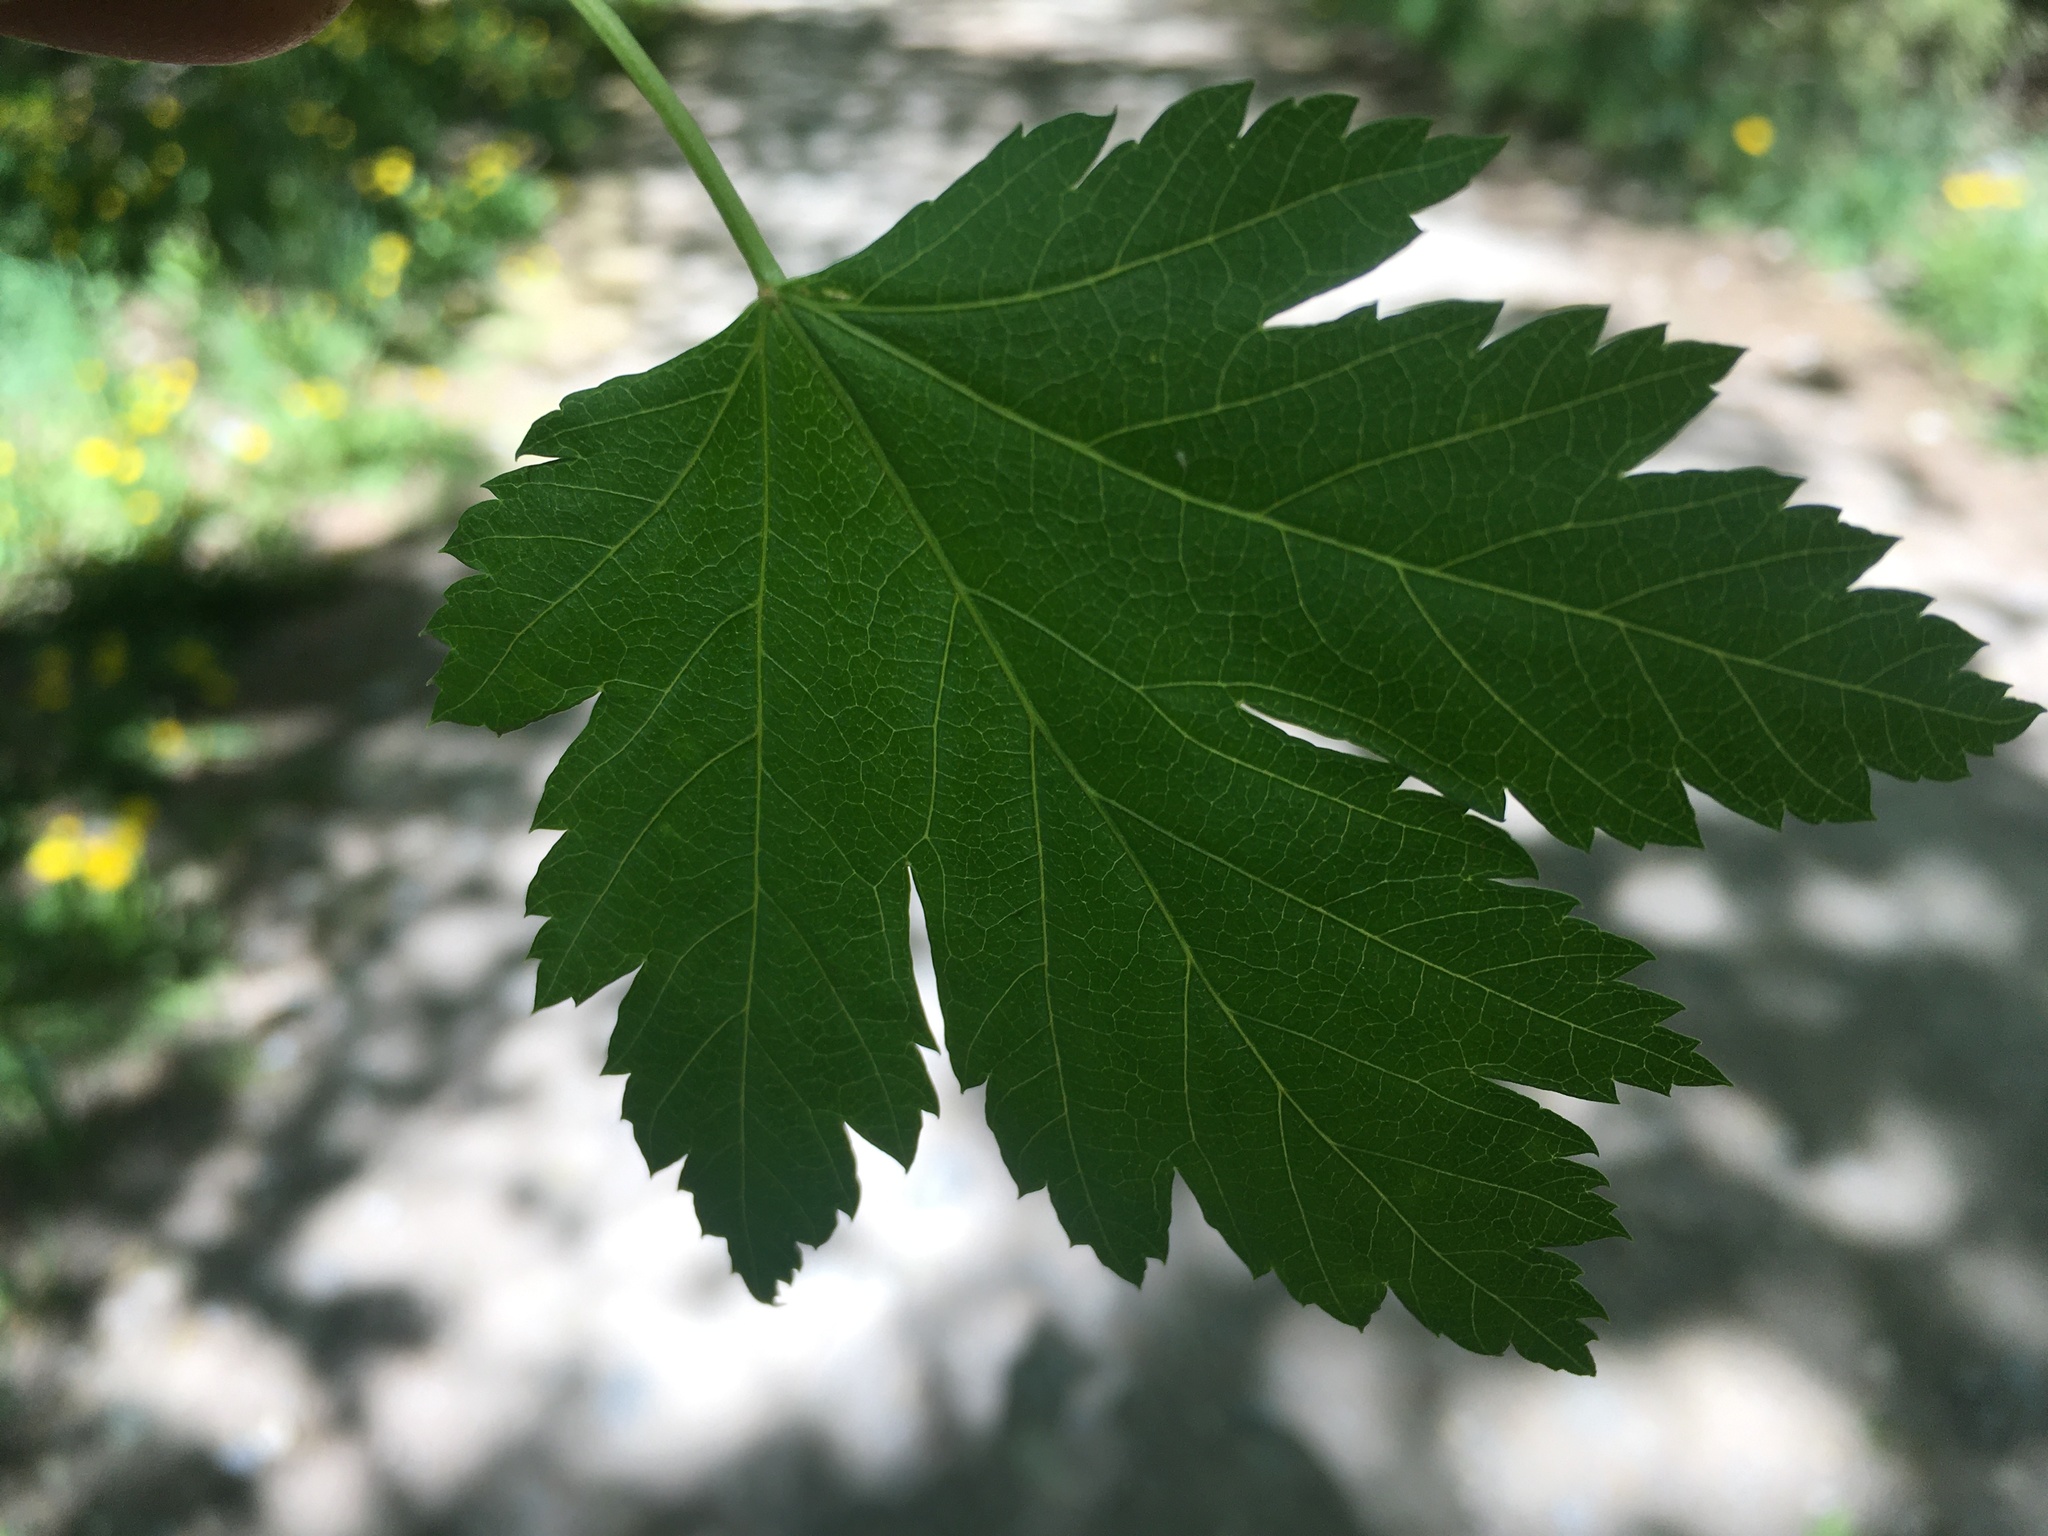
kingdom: Plantae
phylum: Tracheophyta
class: Magnoliopsida
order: Sapindales
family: Sapindaceae
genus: Acer
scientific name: Acer glabrum
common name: Rocky mountain maple
